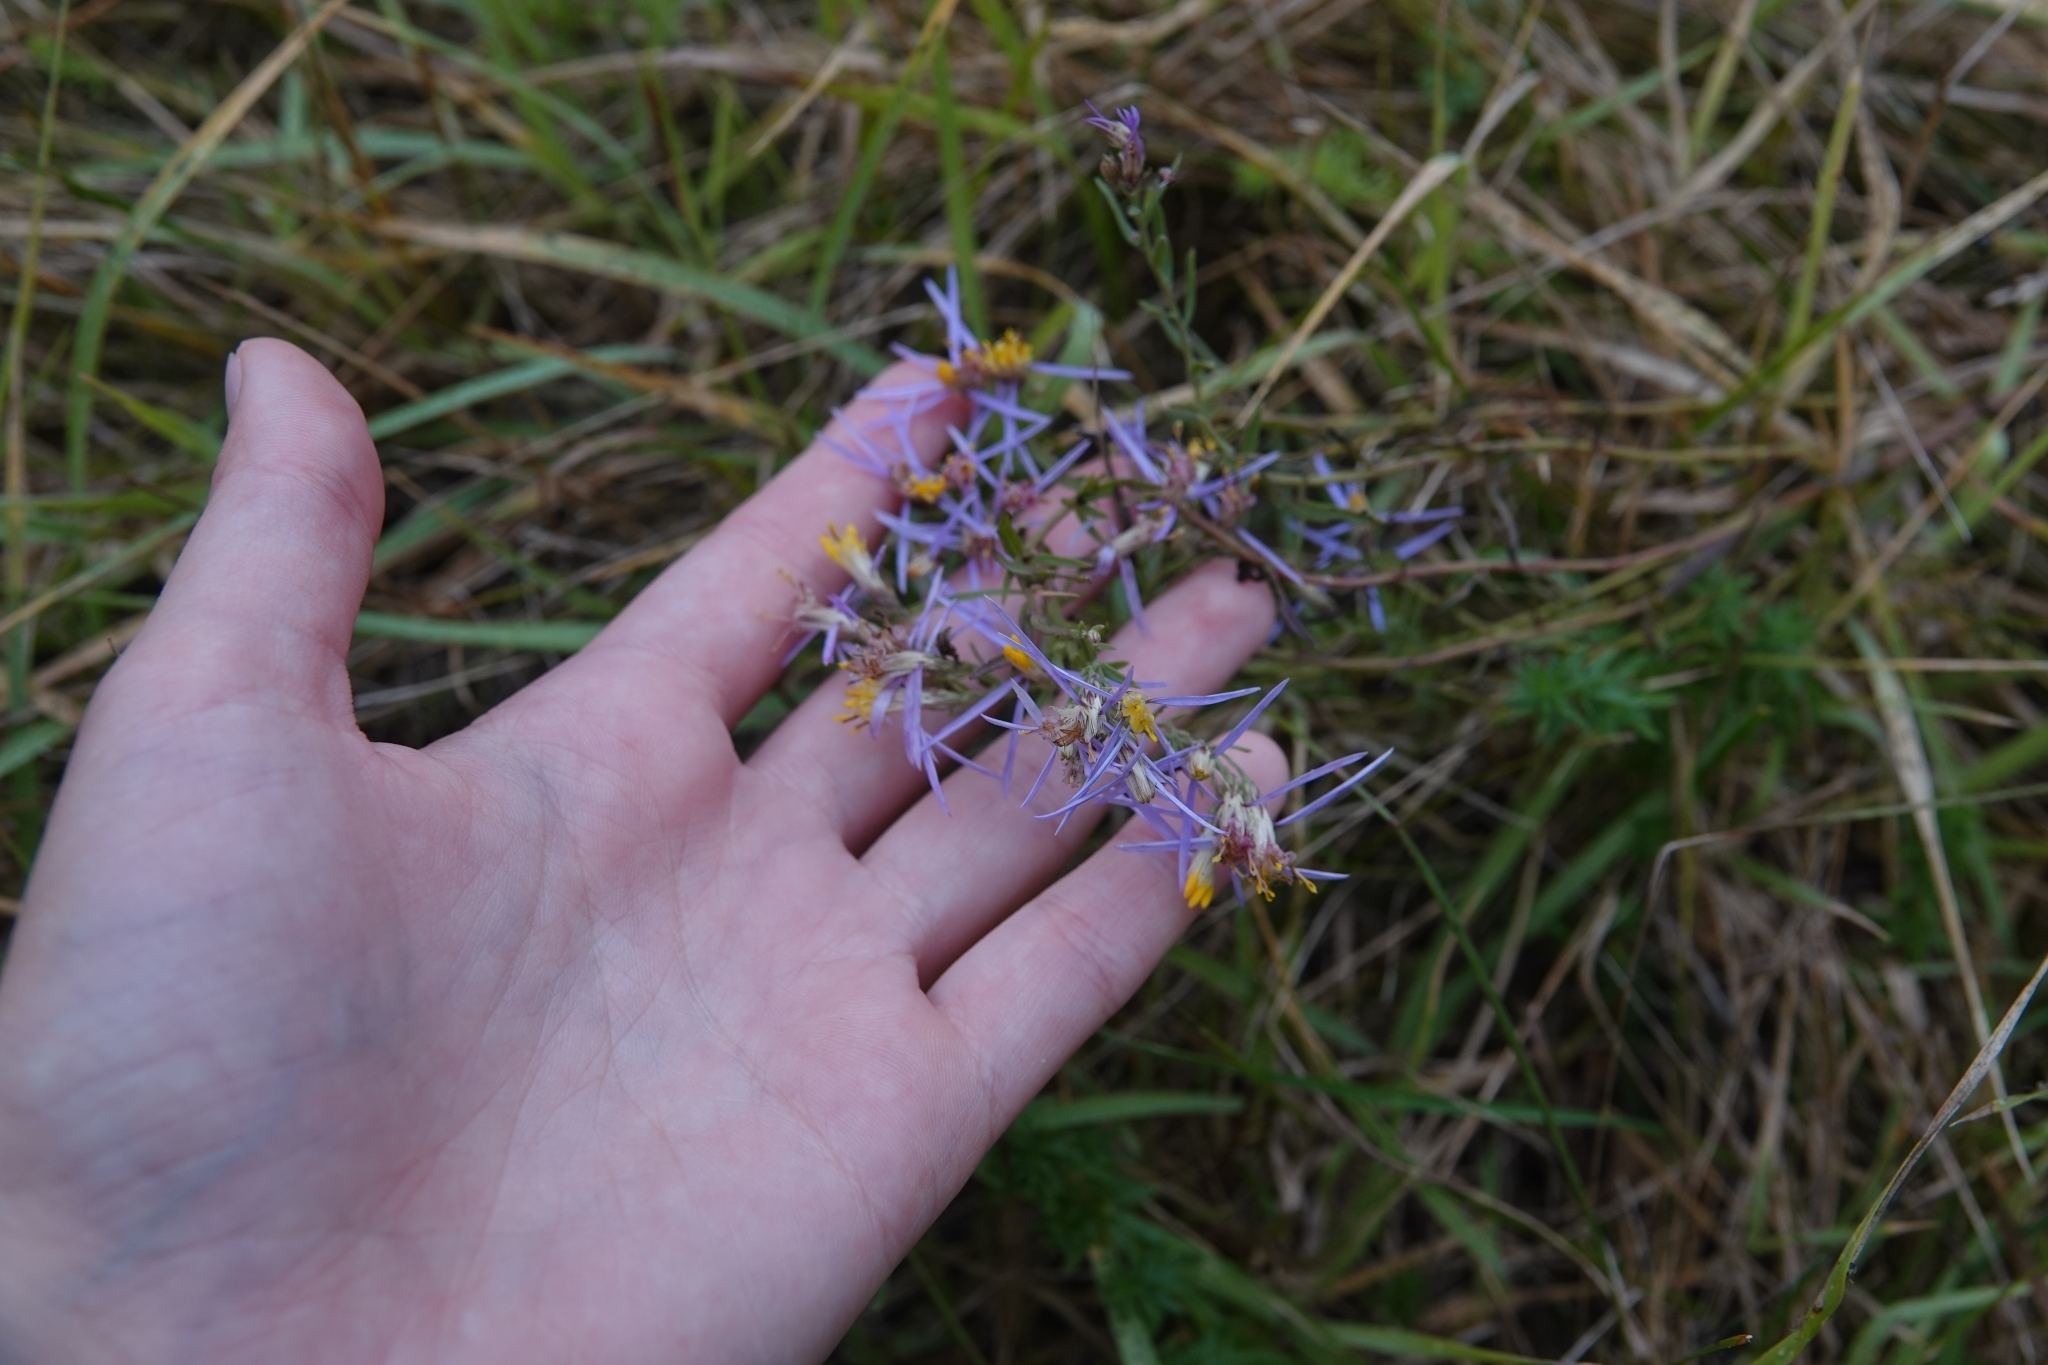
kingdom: Plantae
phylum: Tracheophyta
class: Magnoliopsida
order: Asterales
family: Asteraceae
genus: Galatella
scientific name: Galatella angustissima
